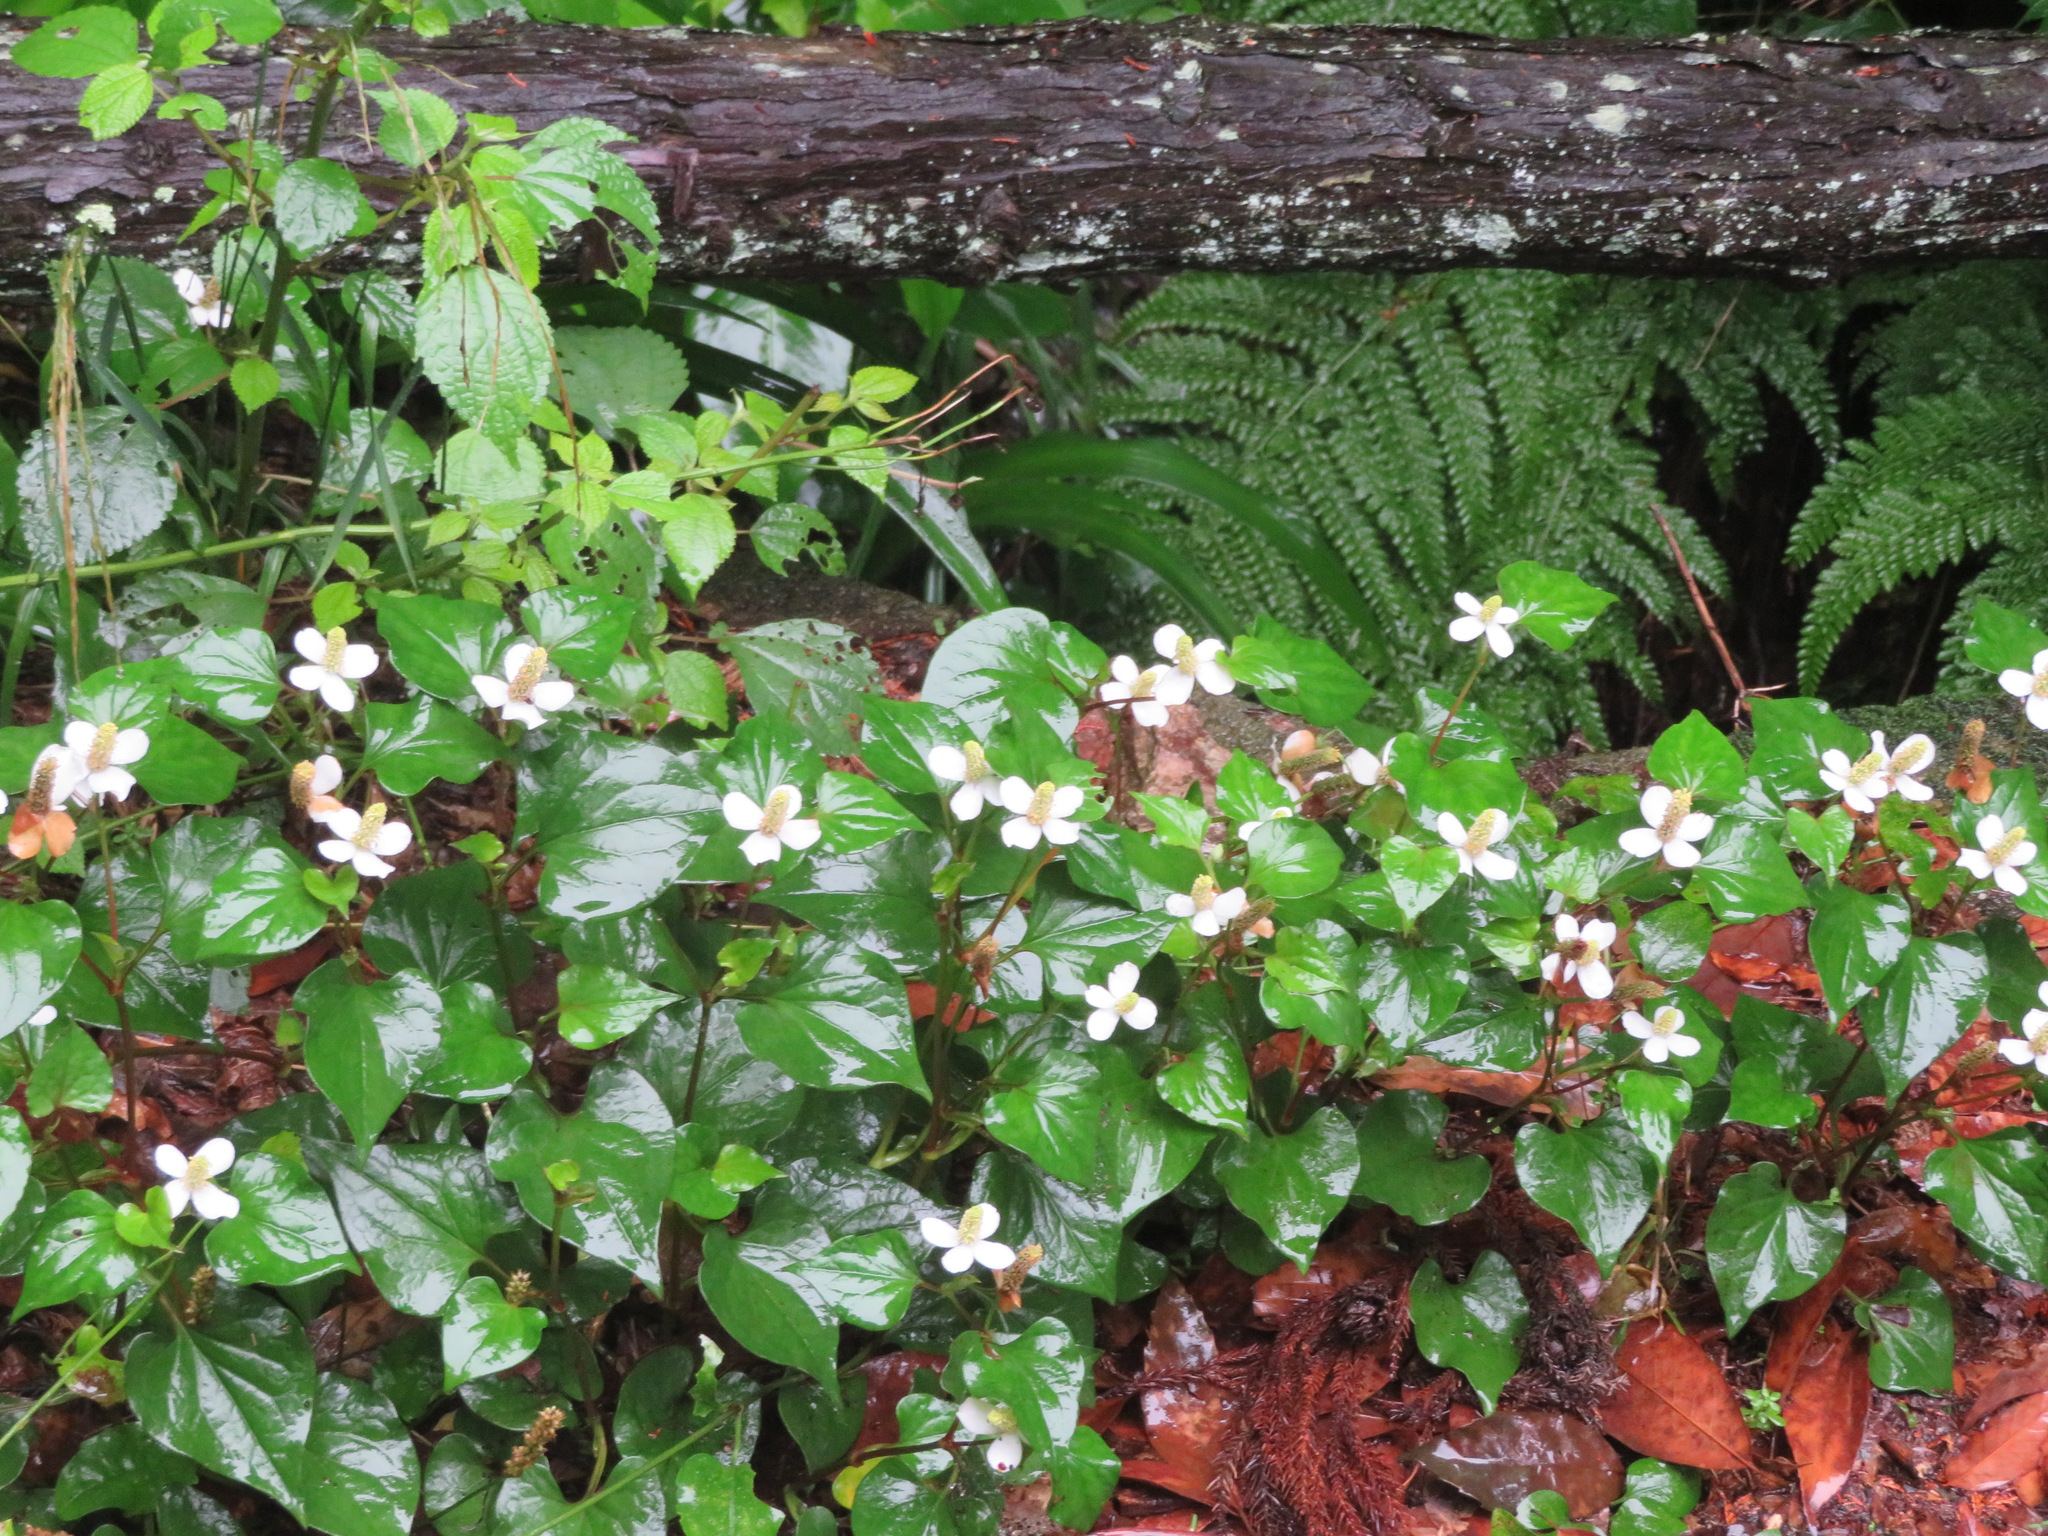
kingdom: Plantae
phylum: Tracheophyta
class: Magnoliopsida
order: Piperales
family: Saururaceae
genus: Houttuynia
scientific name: Houttuynia cordata
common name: Chameleon
